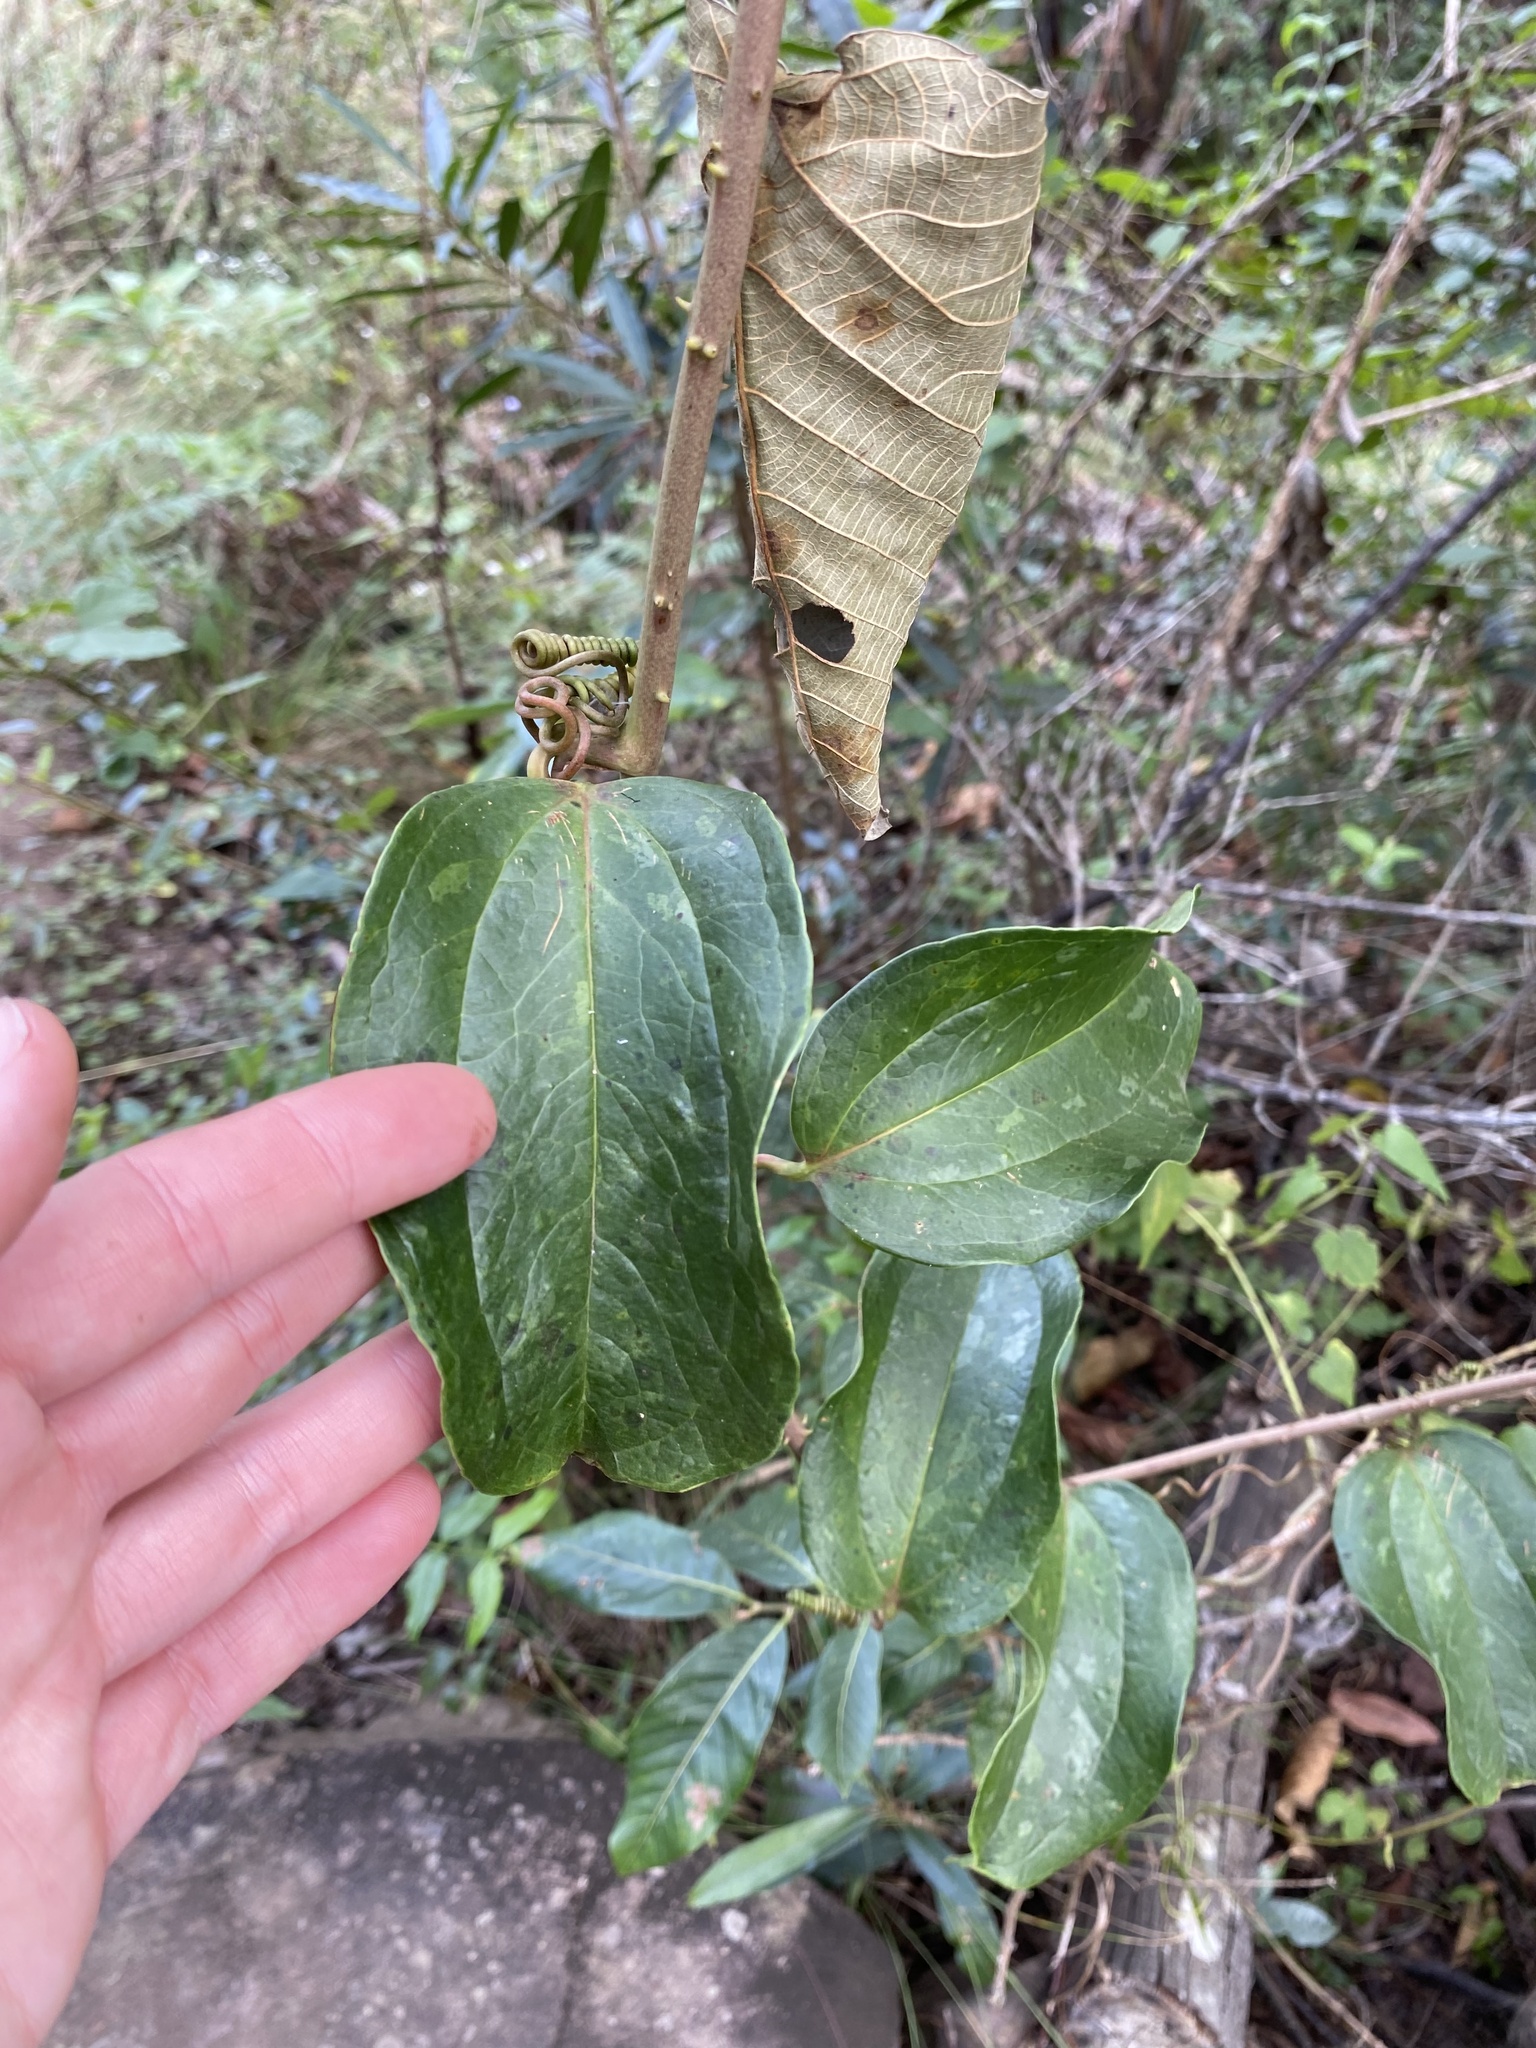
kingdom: Plantae
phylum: Tracheophyta
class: Liliopsida
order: Liliales
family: Smilacaceae
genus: Smilax
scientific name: Smilax anceps
